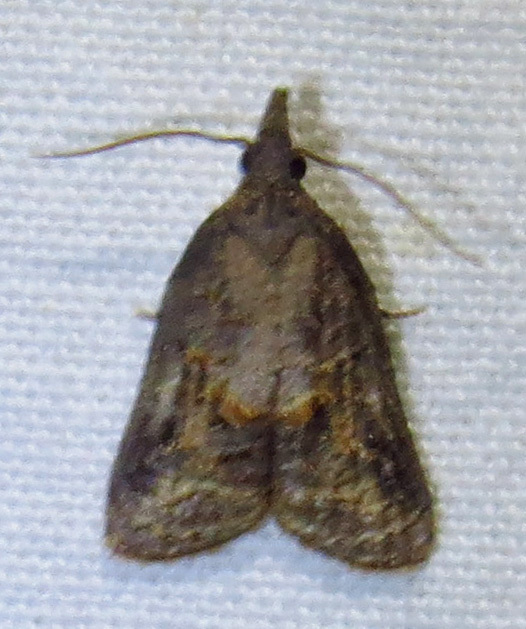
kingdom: Animalia
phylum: Arthropoda
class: Insecta
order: Lepidoptera
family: Tortricidae
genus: Platynota
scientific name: Platynota idaeusalis
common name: Tufted apple bud moth
